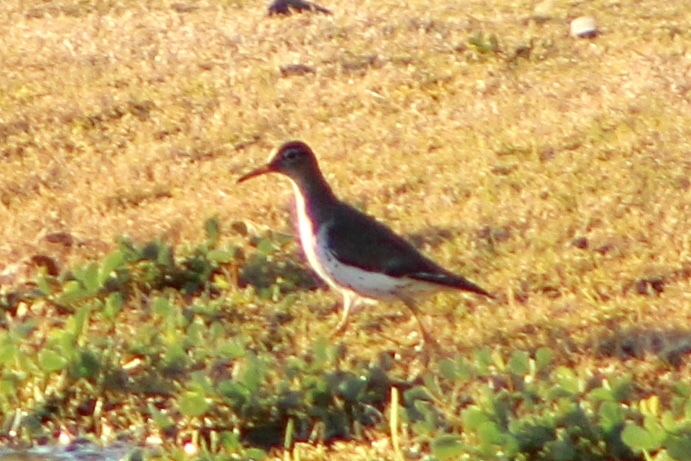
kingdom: Animalia
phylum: Chordata
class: Aves
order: Charadriiformes
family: Scolopacidae
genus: Actitis
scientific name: Actitis macularius
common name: Spotted sandpiper
